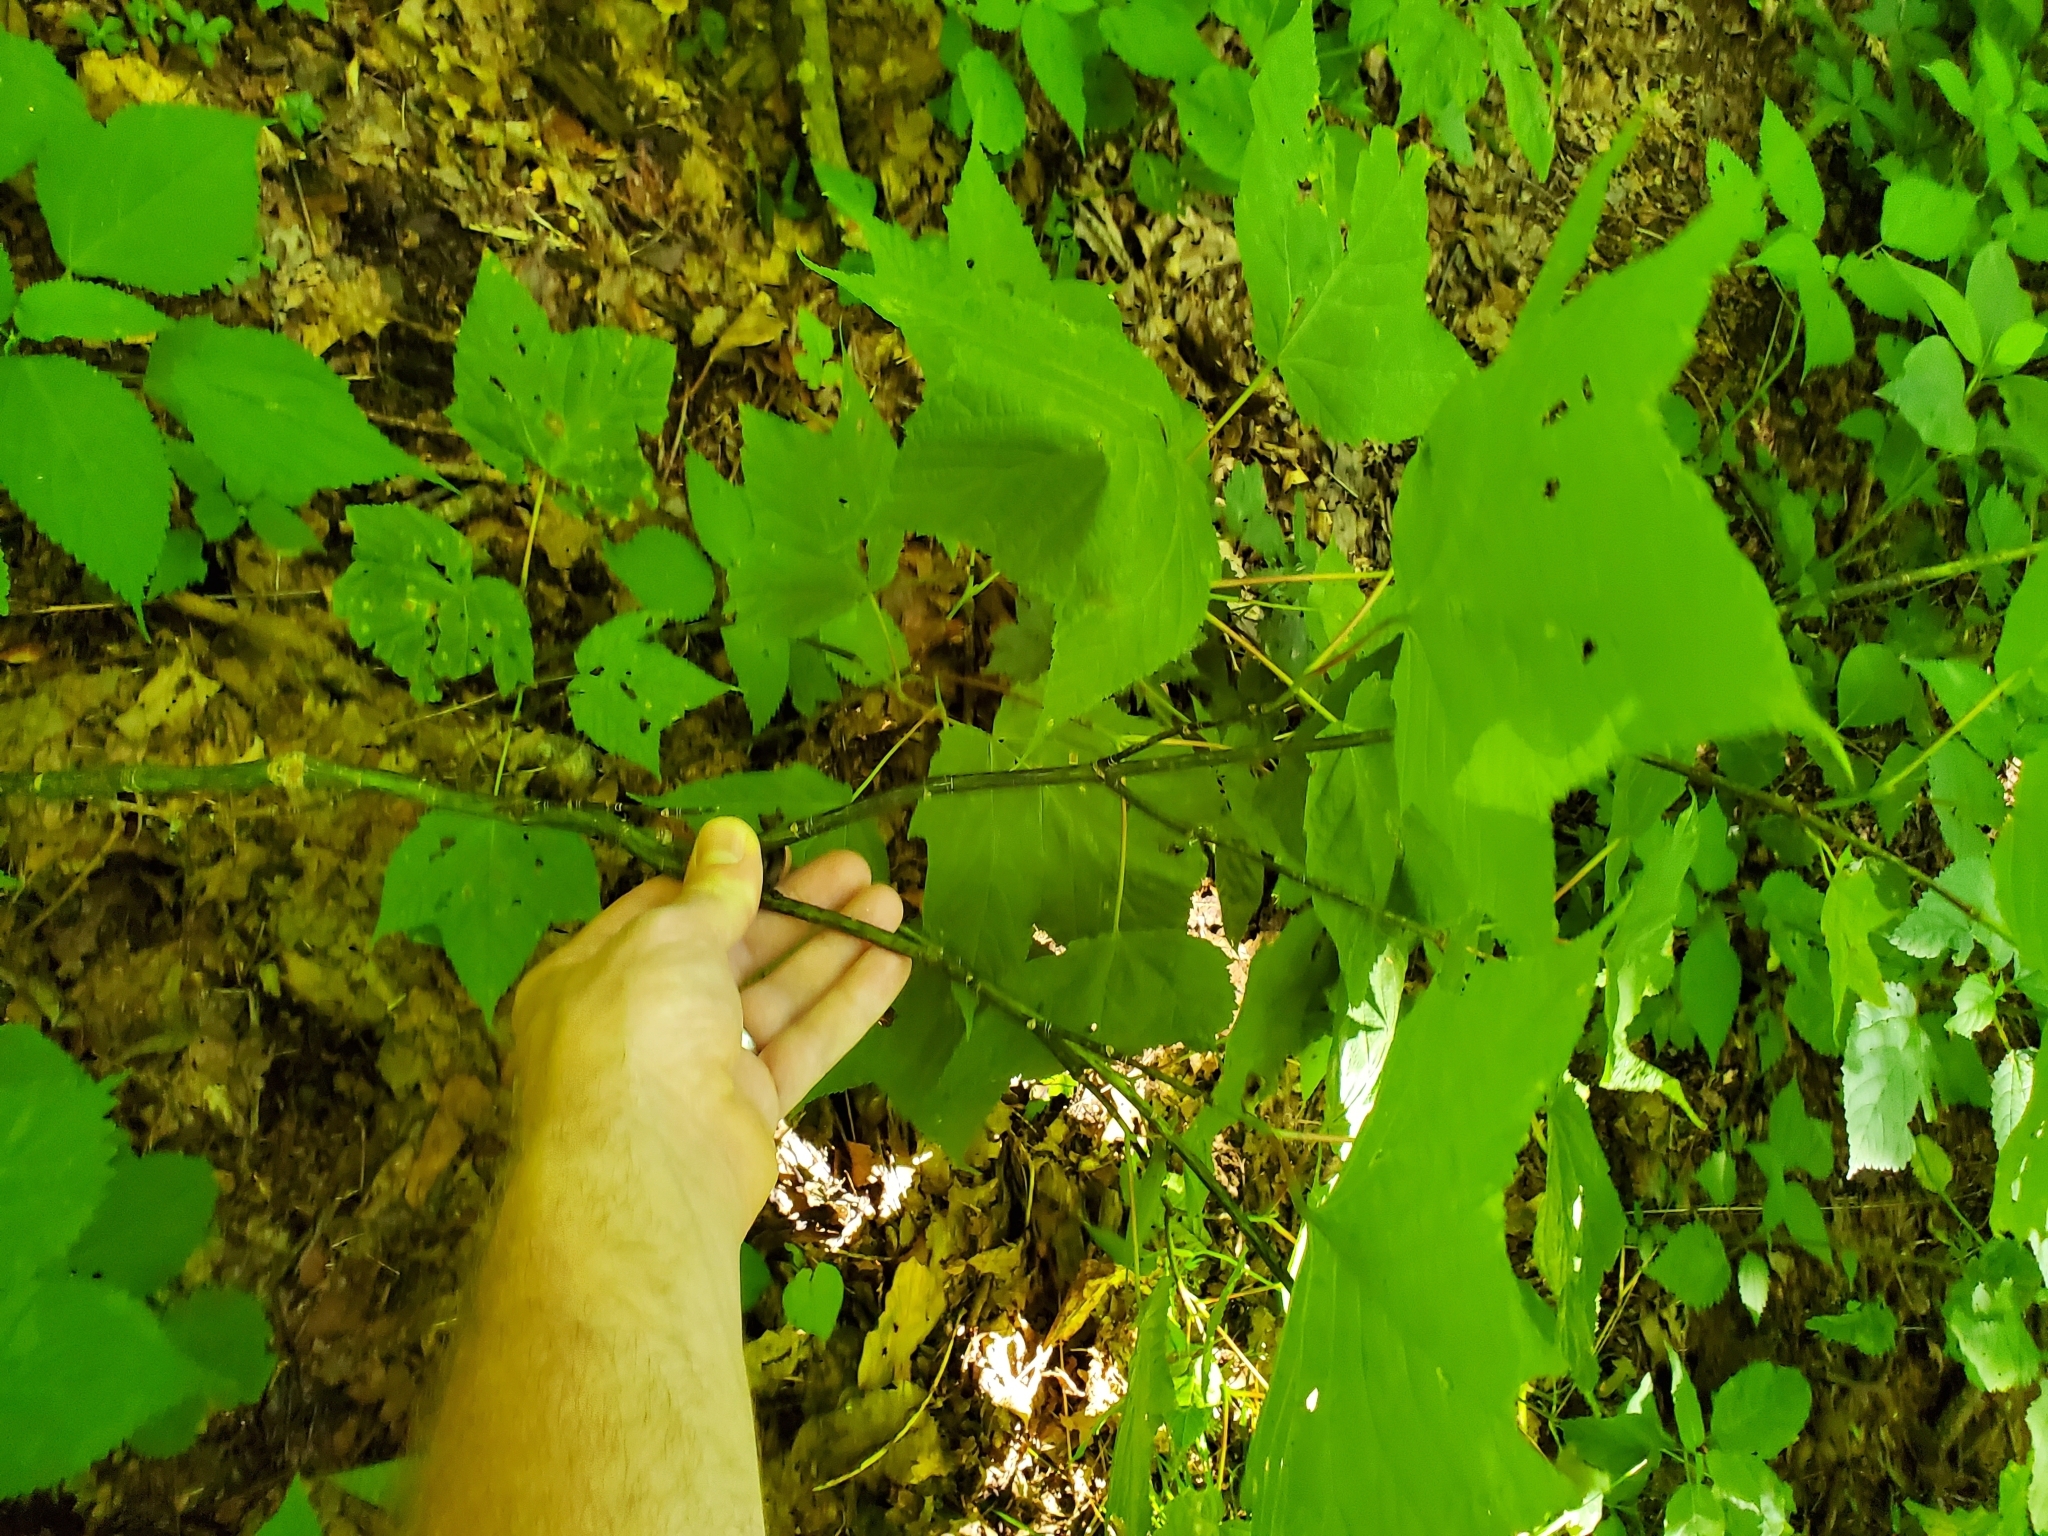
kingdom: Plantae
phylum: Tracheophyta
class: Magnoliopsida
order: Sapindales
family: Sapindaceae
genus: Acer
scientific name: Acer pensylvanicum
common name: Moosewood
